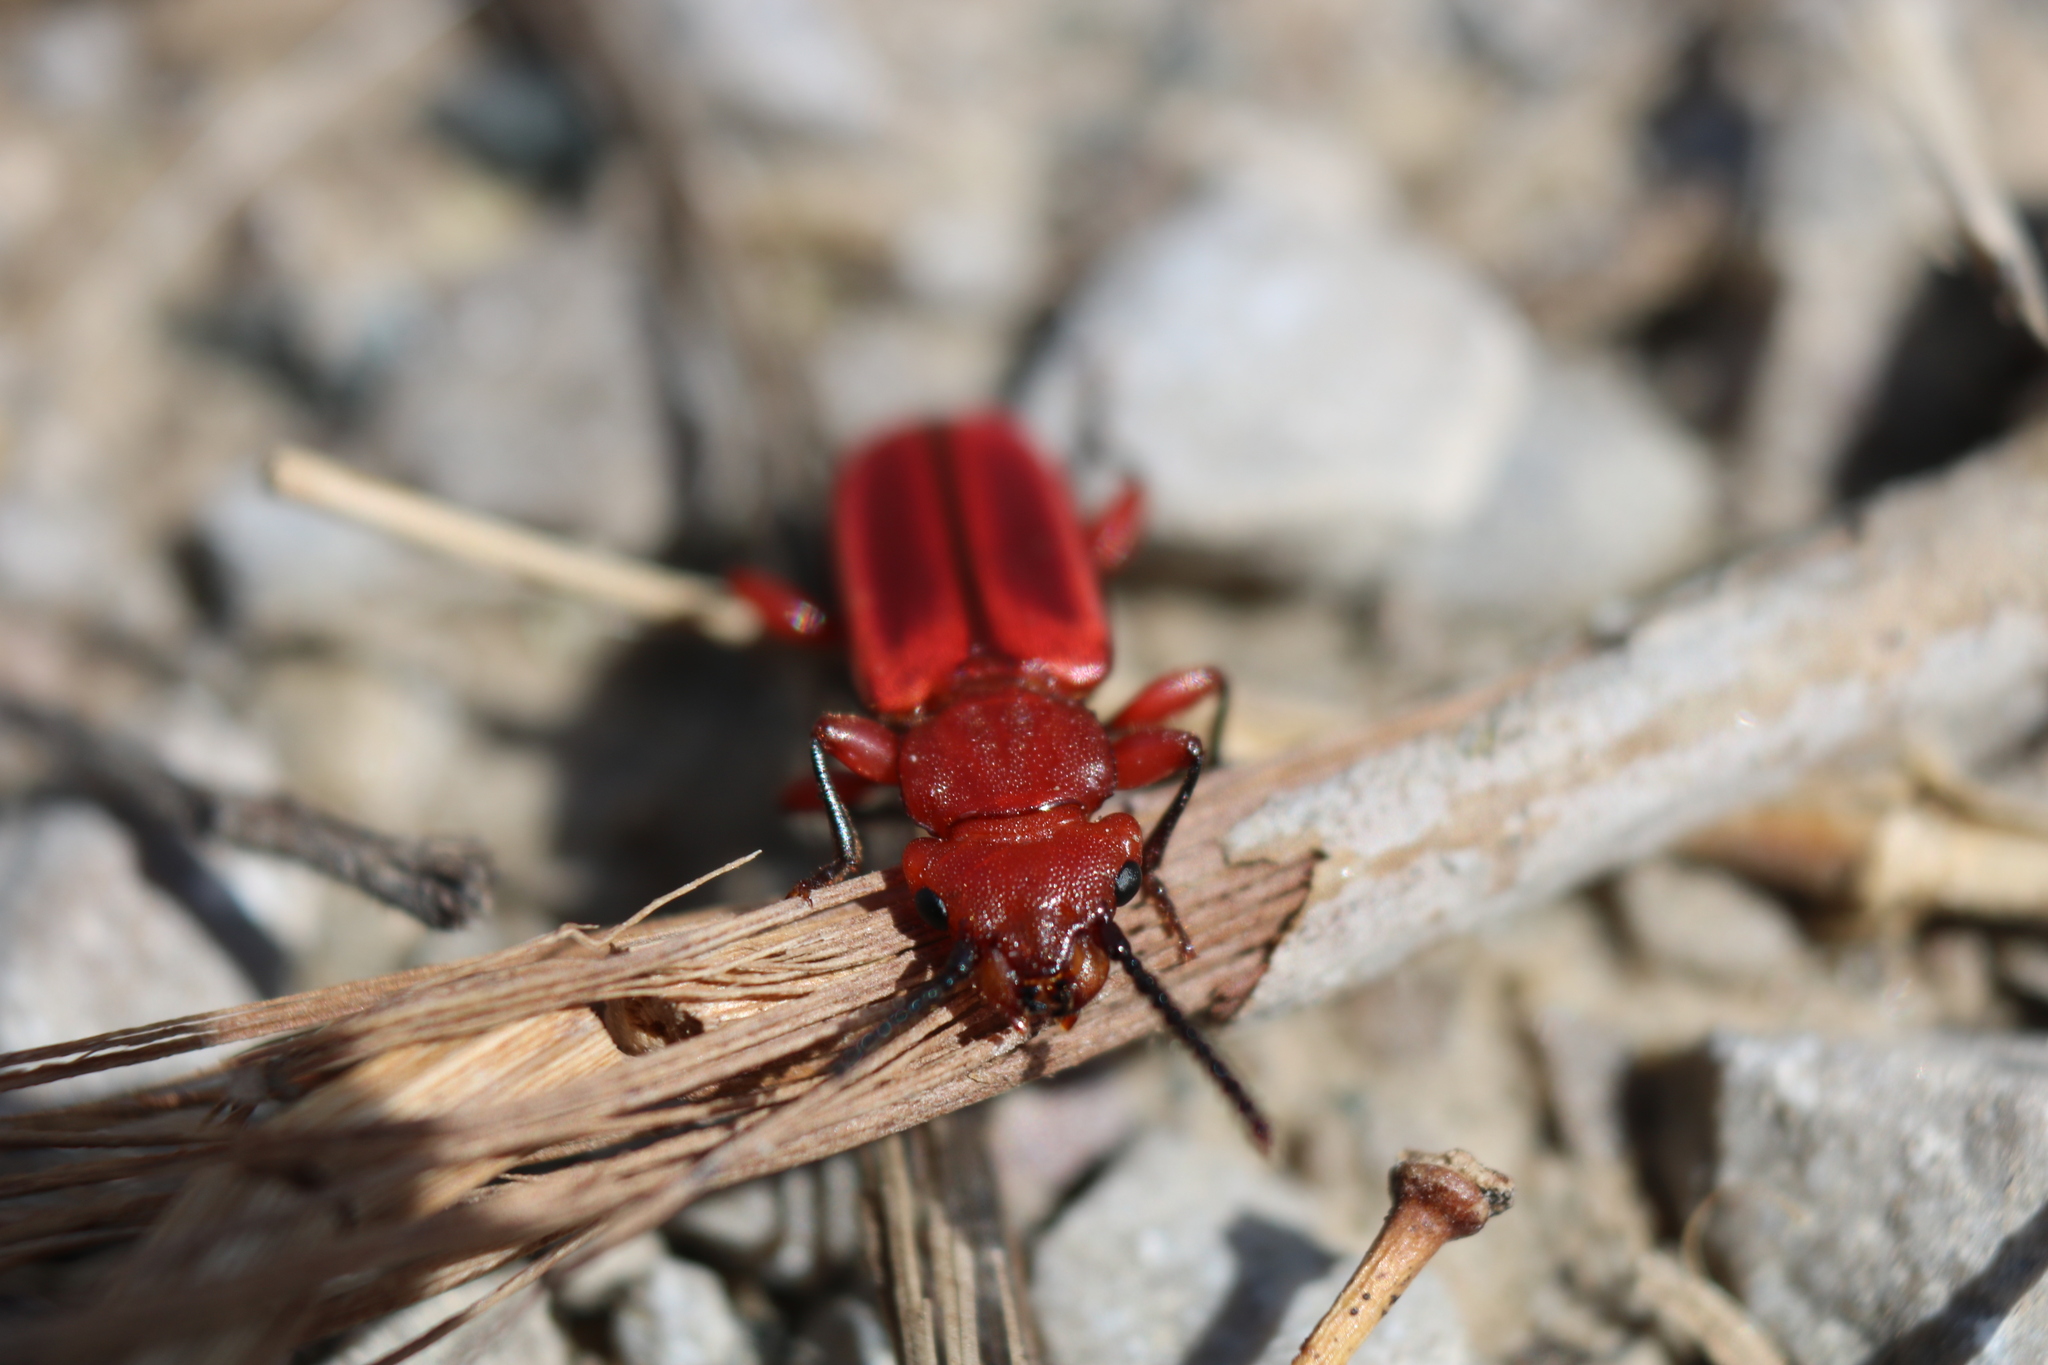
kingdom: Animalia
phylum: Arthropoda
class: Insecta
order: Coleoptera
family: Cucujidae
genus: Cucujus
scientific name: Cucujus clavipes
